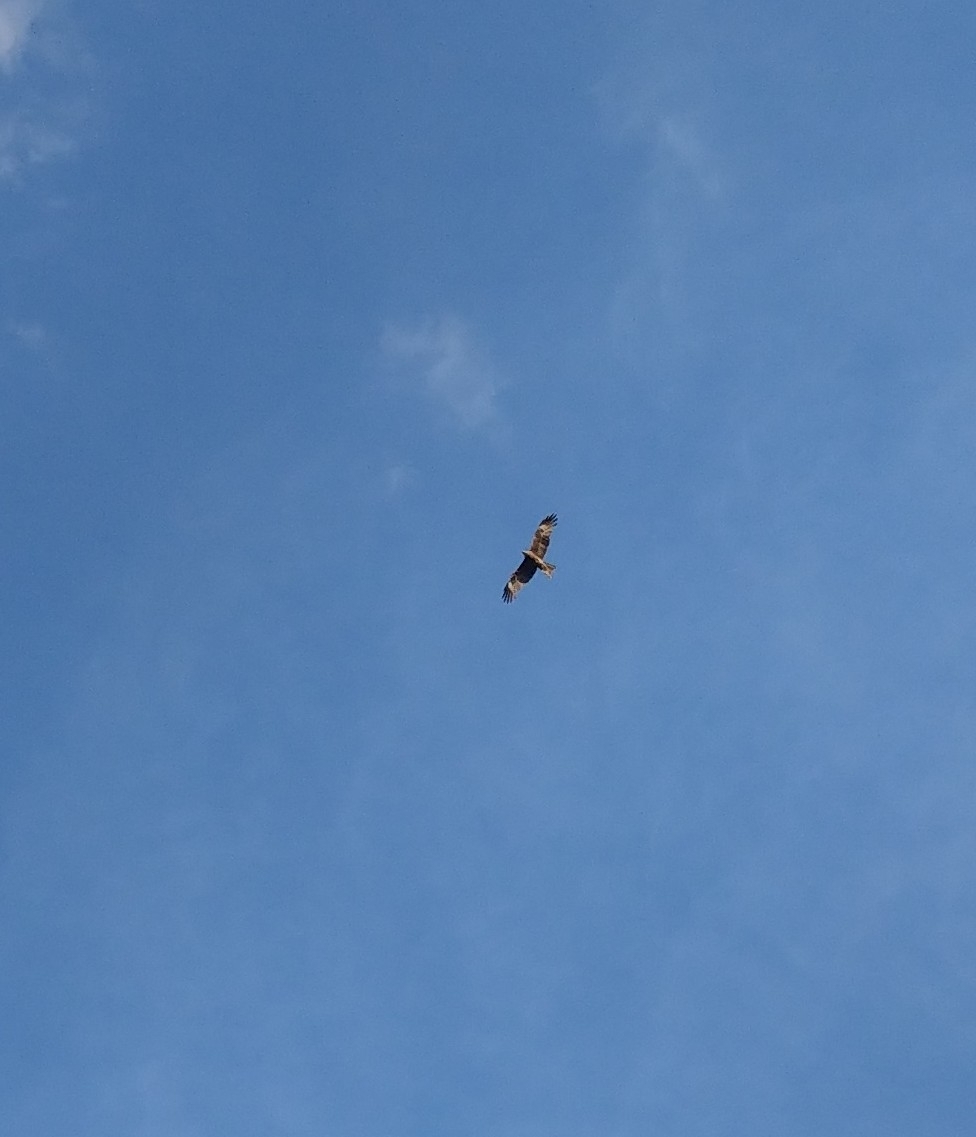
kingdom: Animalia
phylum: Chordata
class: Aves
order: Accipitriformes
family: Accipitridae
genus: Milvus
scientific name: Milvus migrans
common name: Black kite
